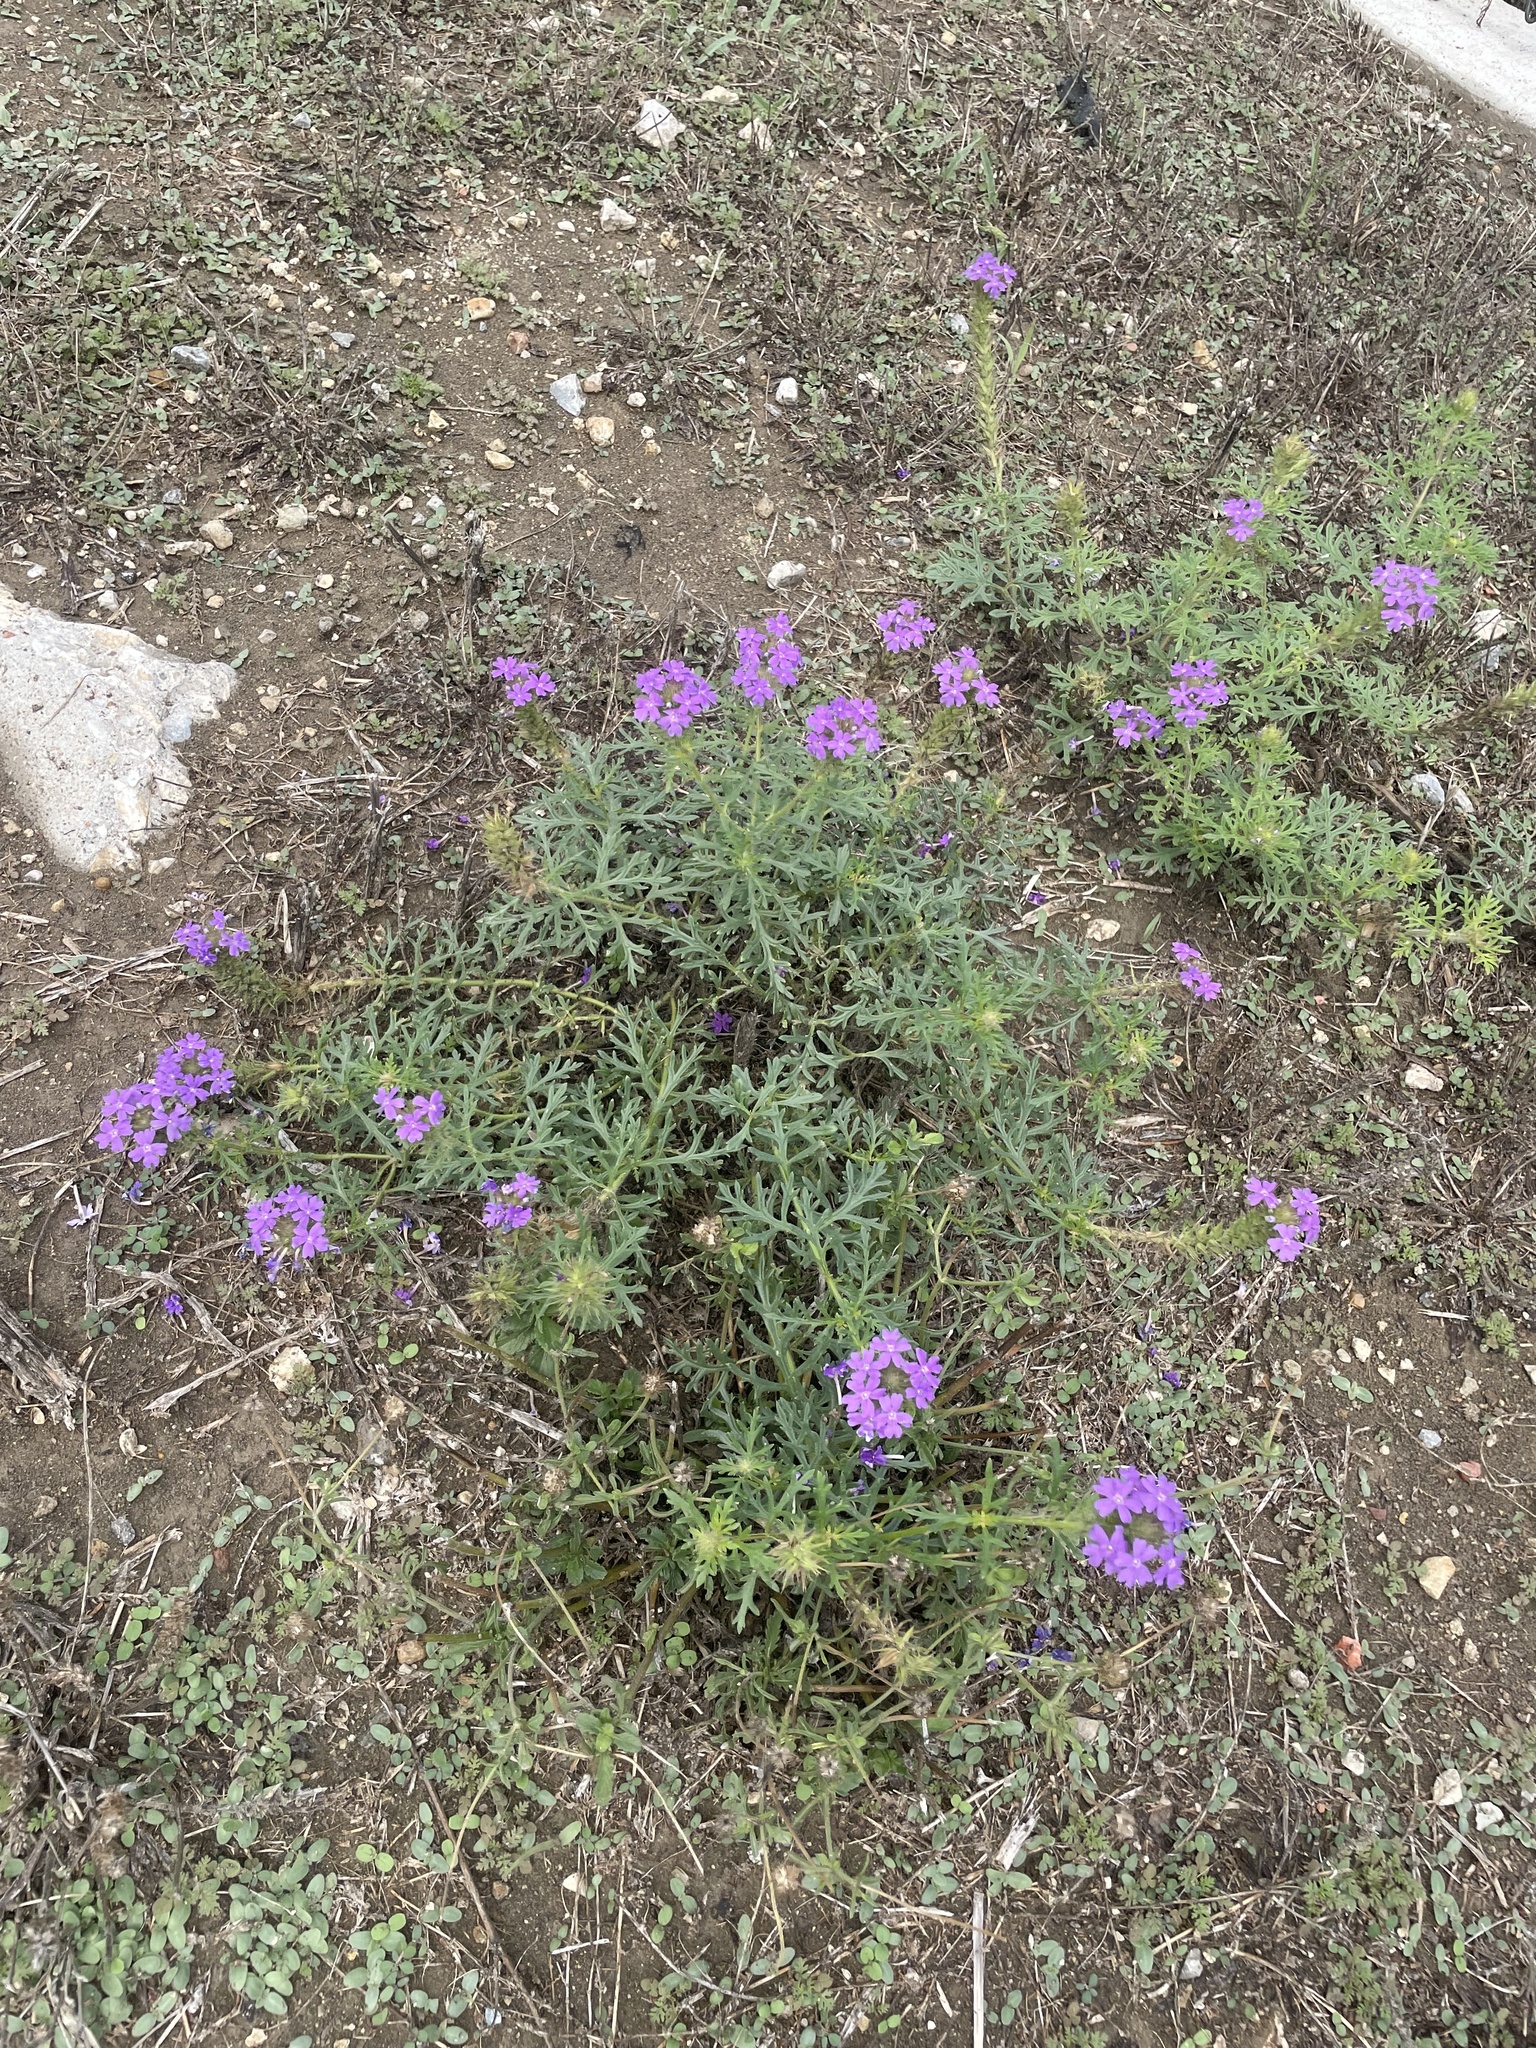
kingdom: Plantae
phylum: Tracheophyta
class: Magnoliopsida
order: Lamiales
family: Verbenaceae
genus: Verbena
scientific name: Verbena bipinnatifida
